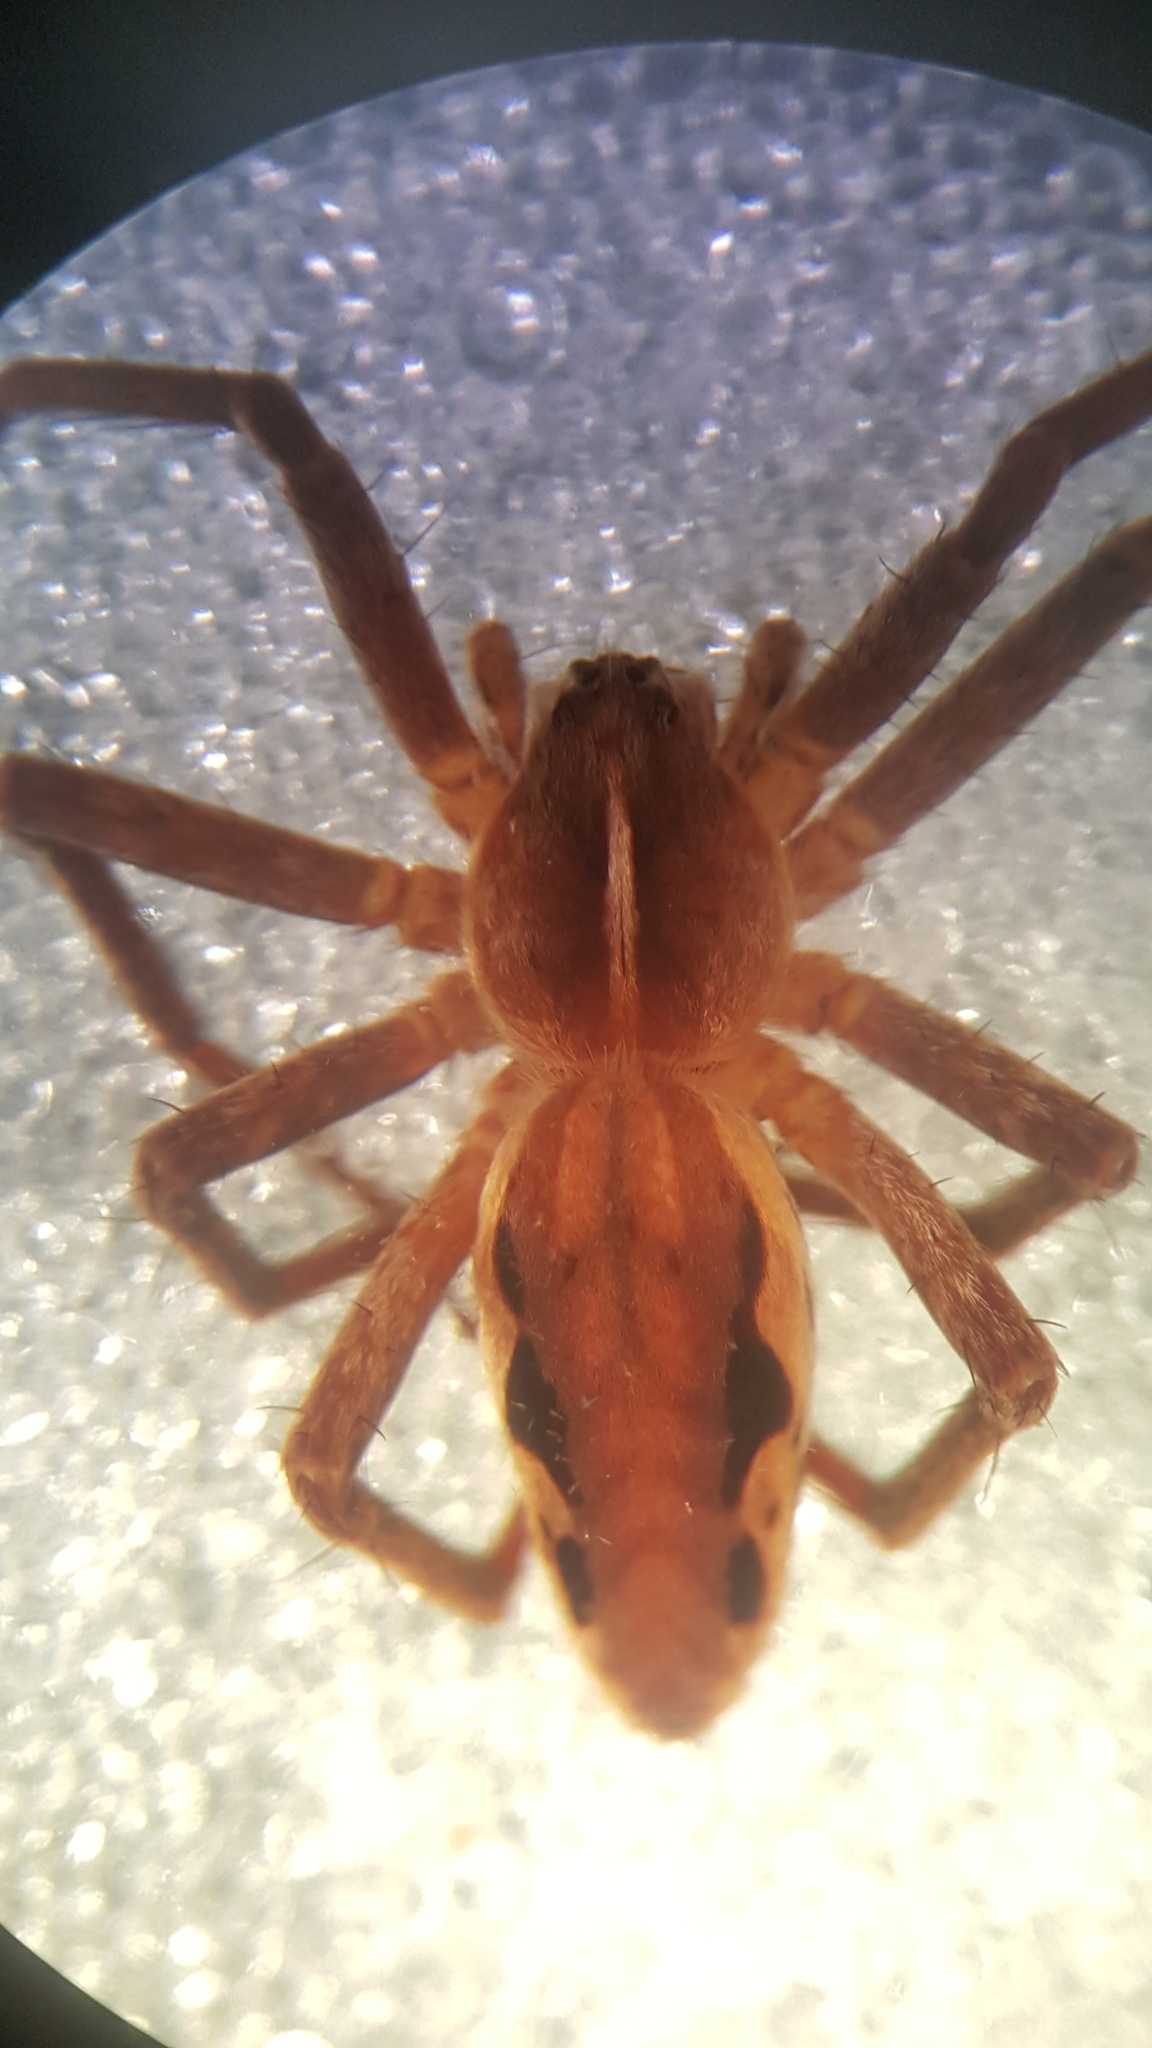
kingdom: Animalia
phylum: Arthropoda
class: Arachnida
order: Araneae
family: Pisauridae
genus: Pisaura
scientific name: Pisaura mirabilis
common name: Tent spider
